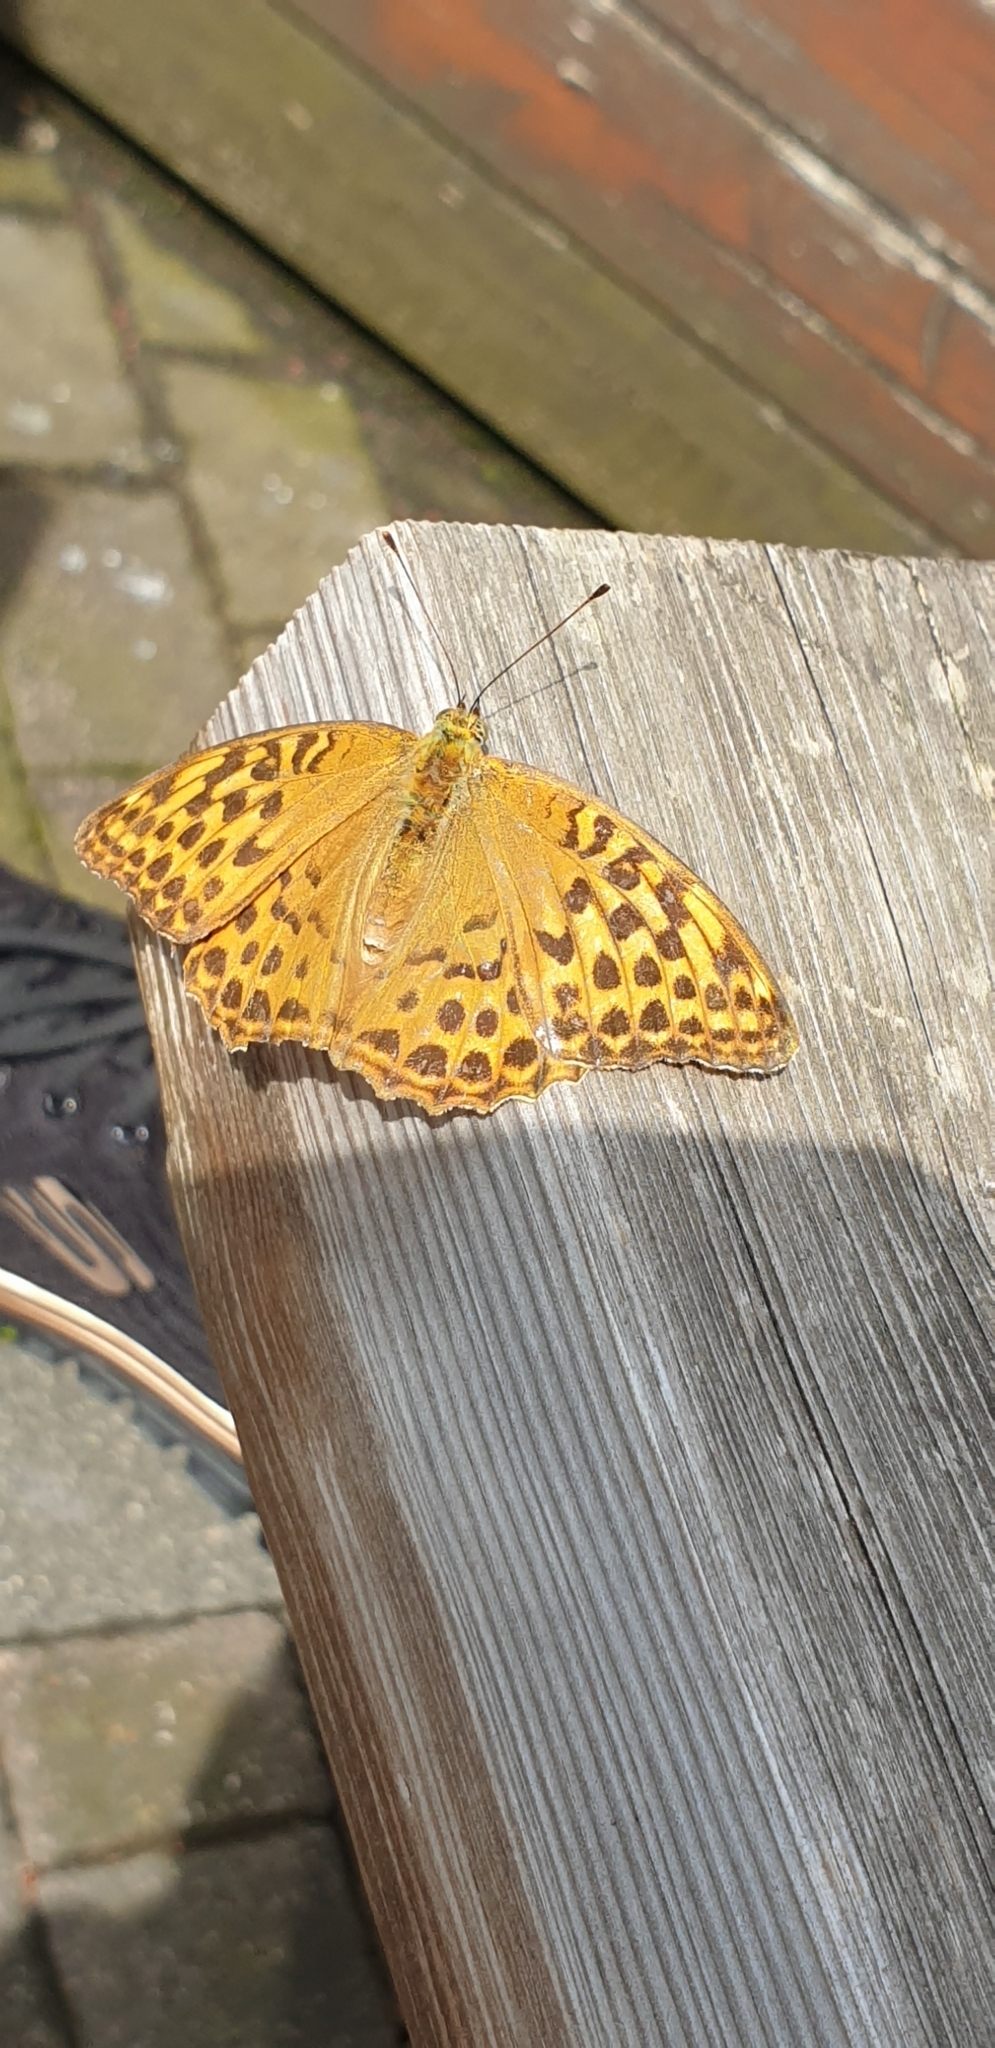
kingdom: Animalia
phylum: Arthropoda
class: Insecta
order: Lepidoptera
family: Nymphalidae
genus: Argynnis
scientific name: Argynnis paphia
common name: Silver-washed fritillary
